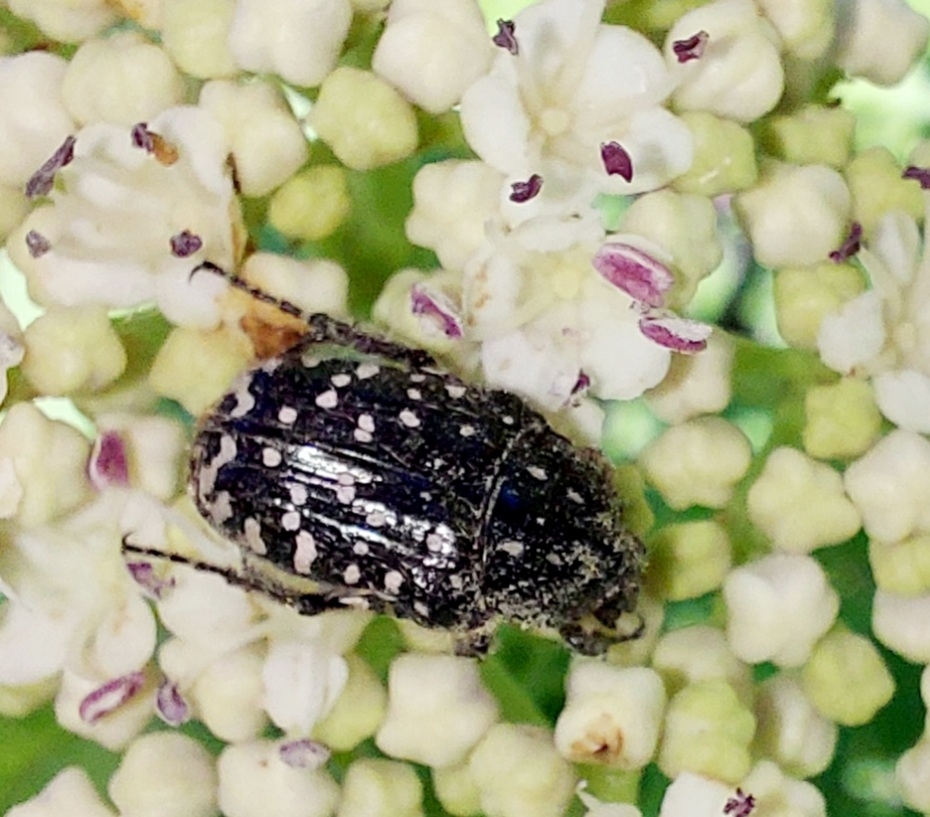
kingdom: Animalia
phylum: Arthropoda
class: Insecta
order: Coleoptera
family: Scarabaeidae
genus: Oxythyrea
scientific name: Oxythyrea funesta
